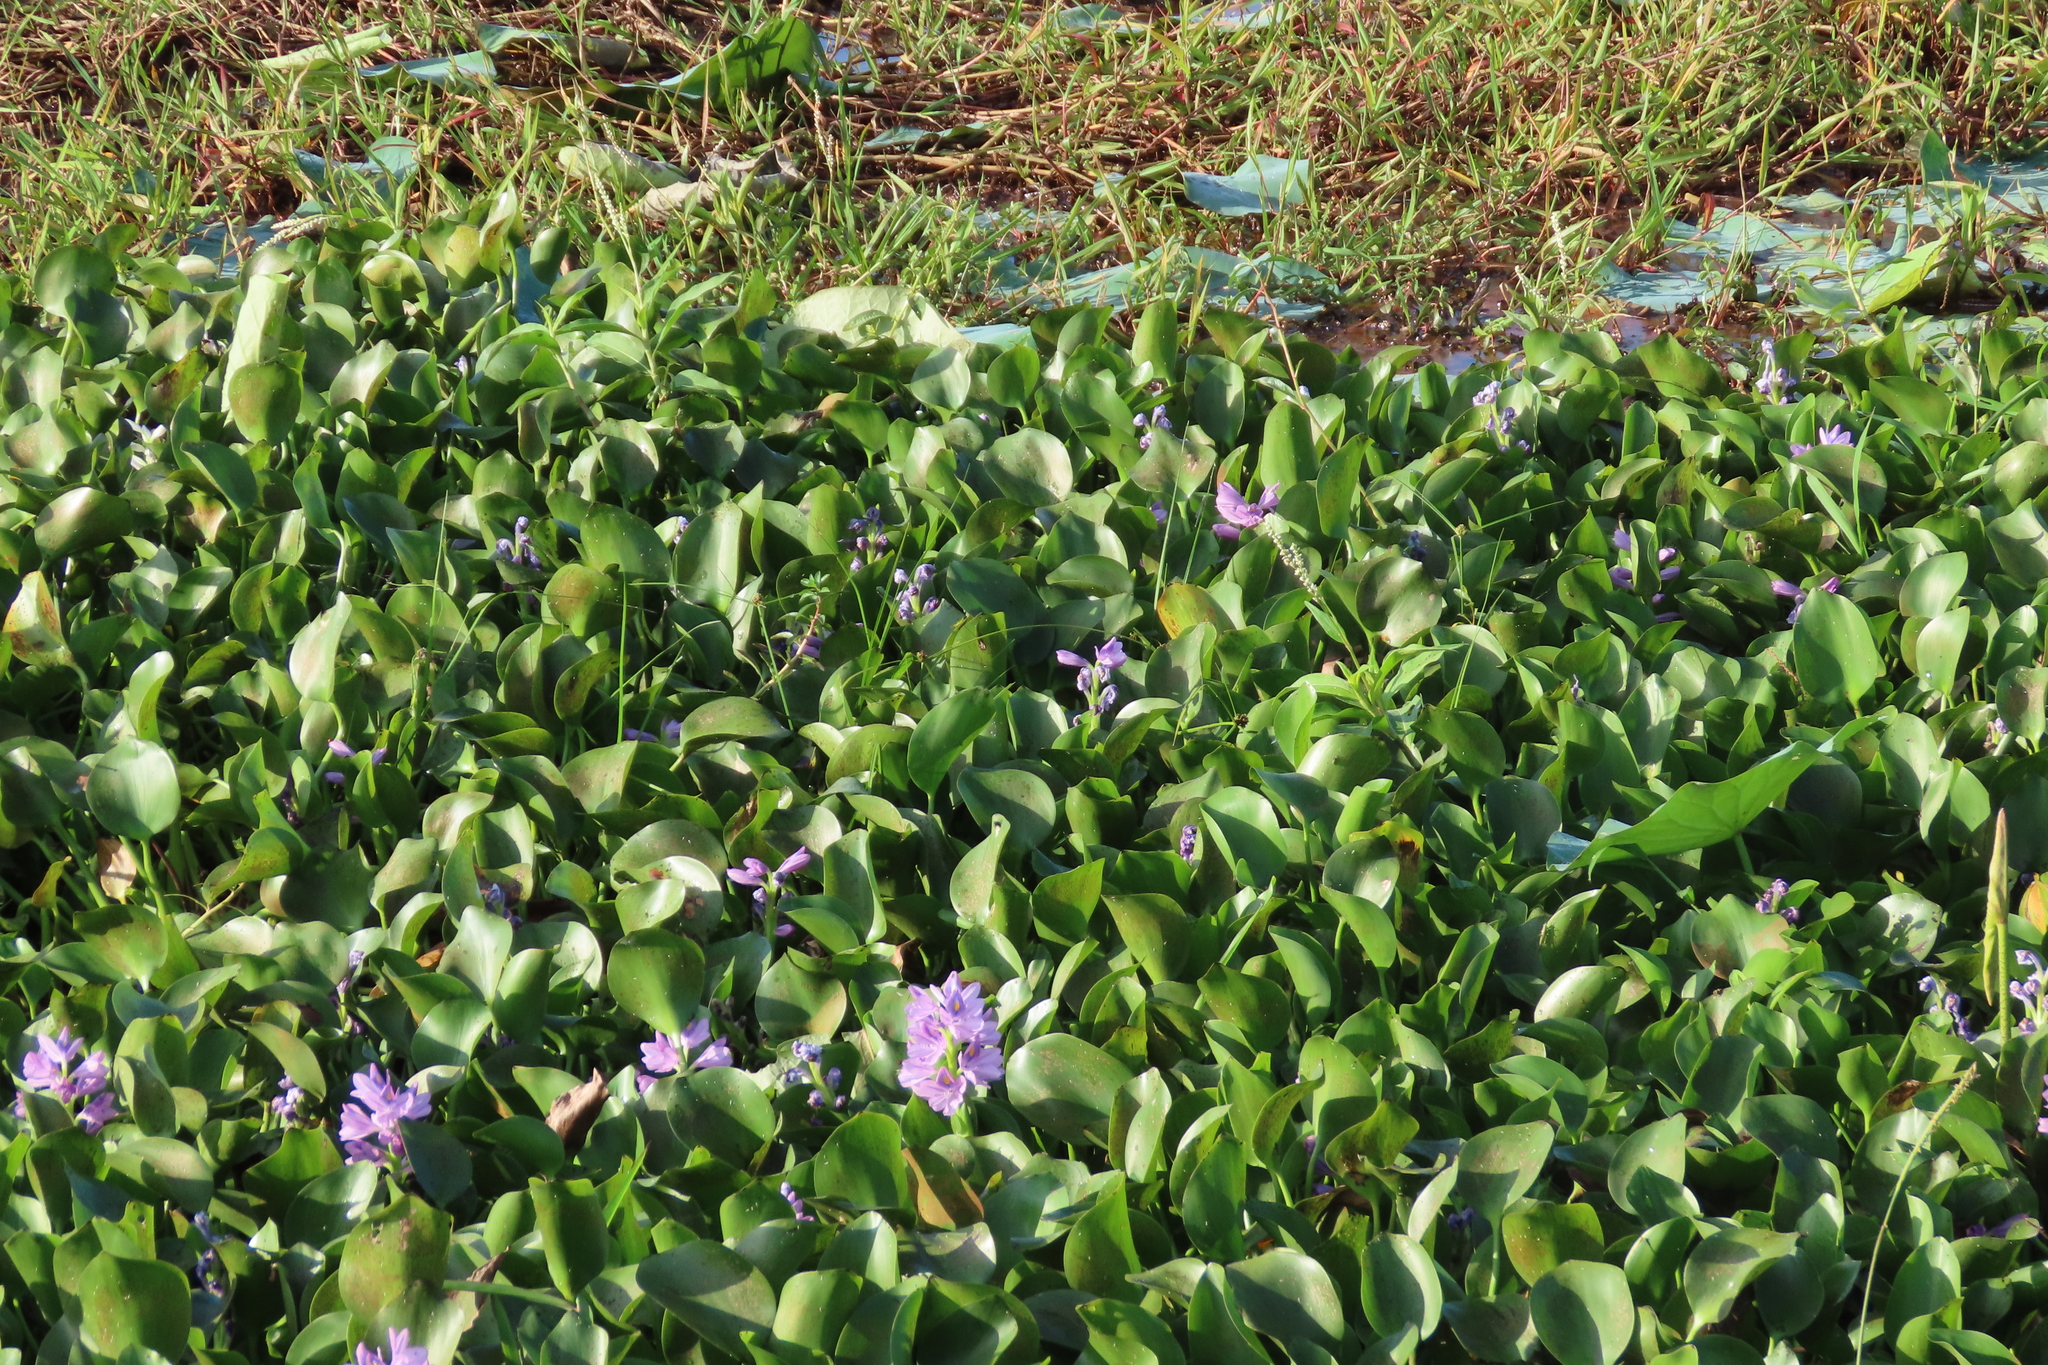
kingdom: Plantae
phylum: Tracheophyta
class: Liliopsida
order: Commelinales
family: Pontederiaceae
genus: Pontederia
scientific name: Pontederia crassipes
